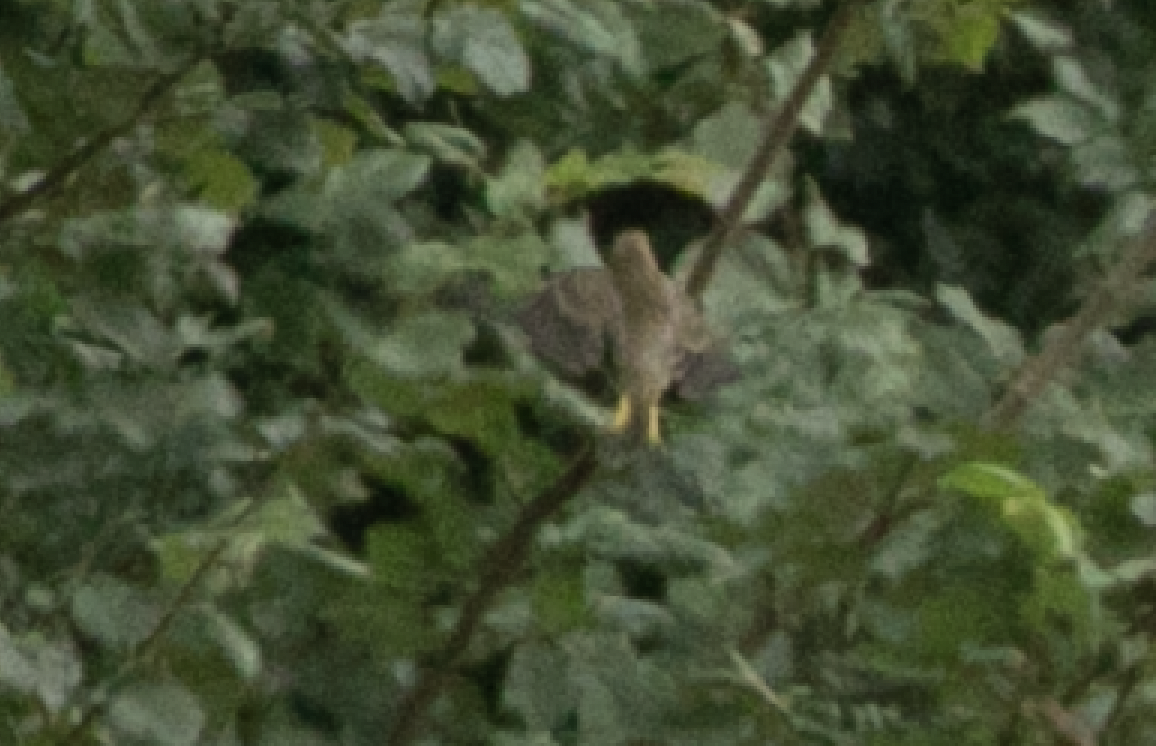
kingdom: Plantae
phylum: Tracheophyta
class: Liliopsida
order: Poales
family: Poaceae
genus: Chloris
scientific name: Chloris chloris
